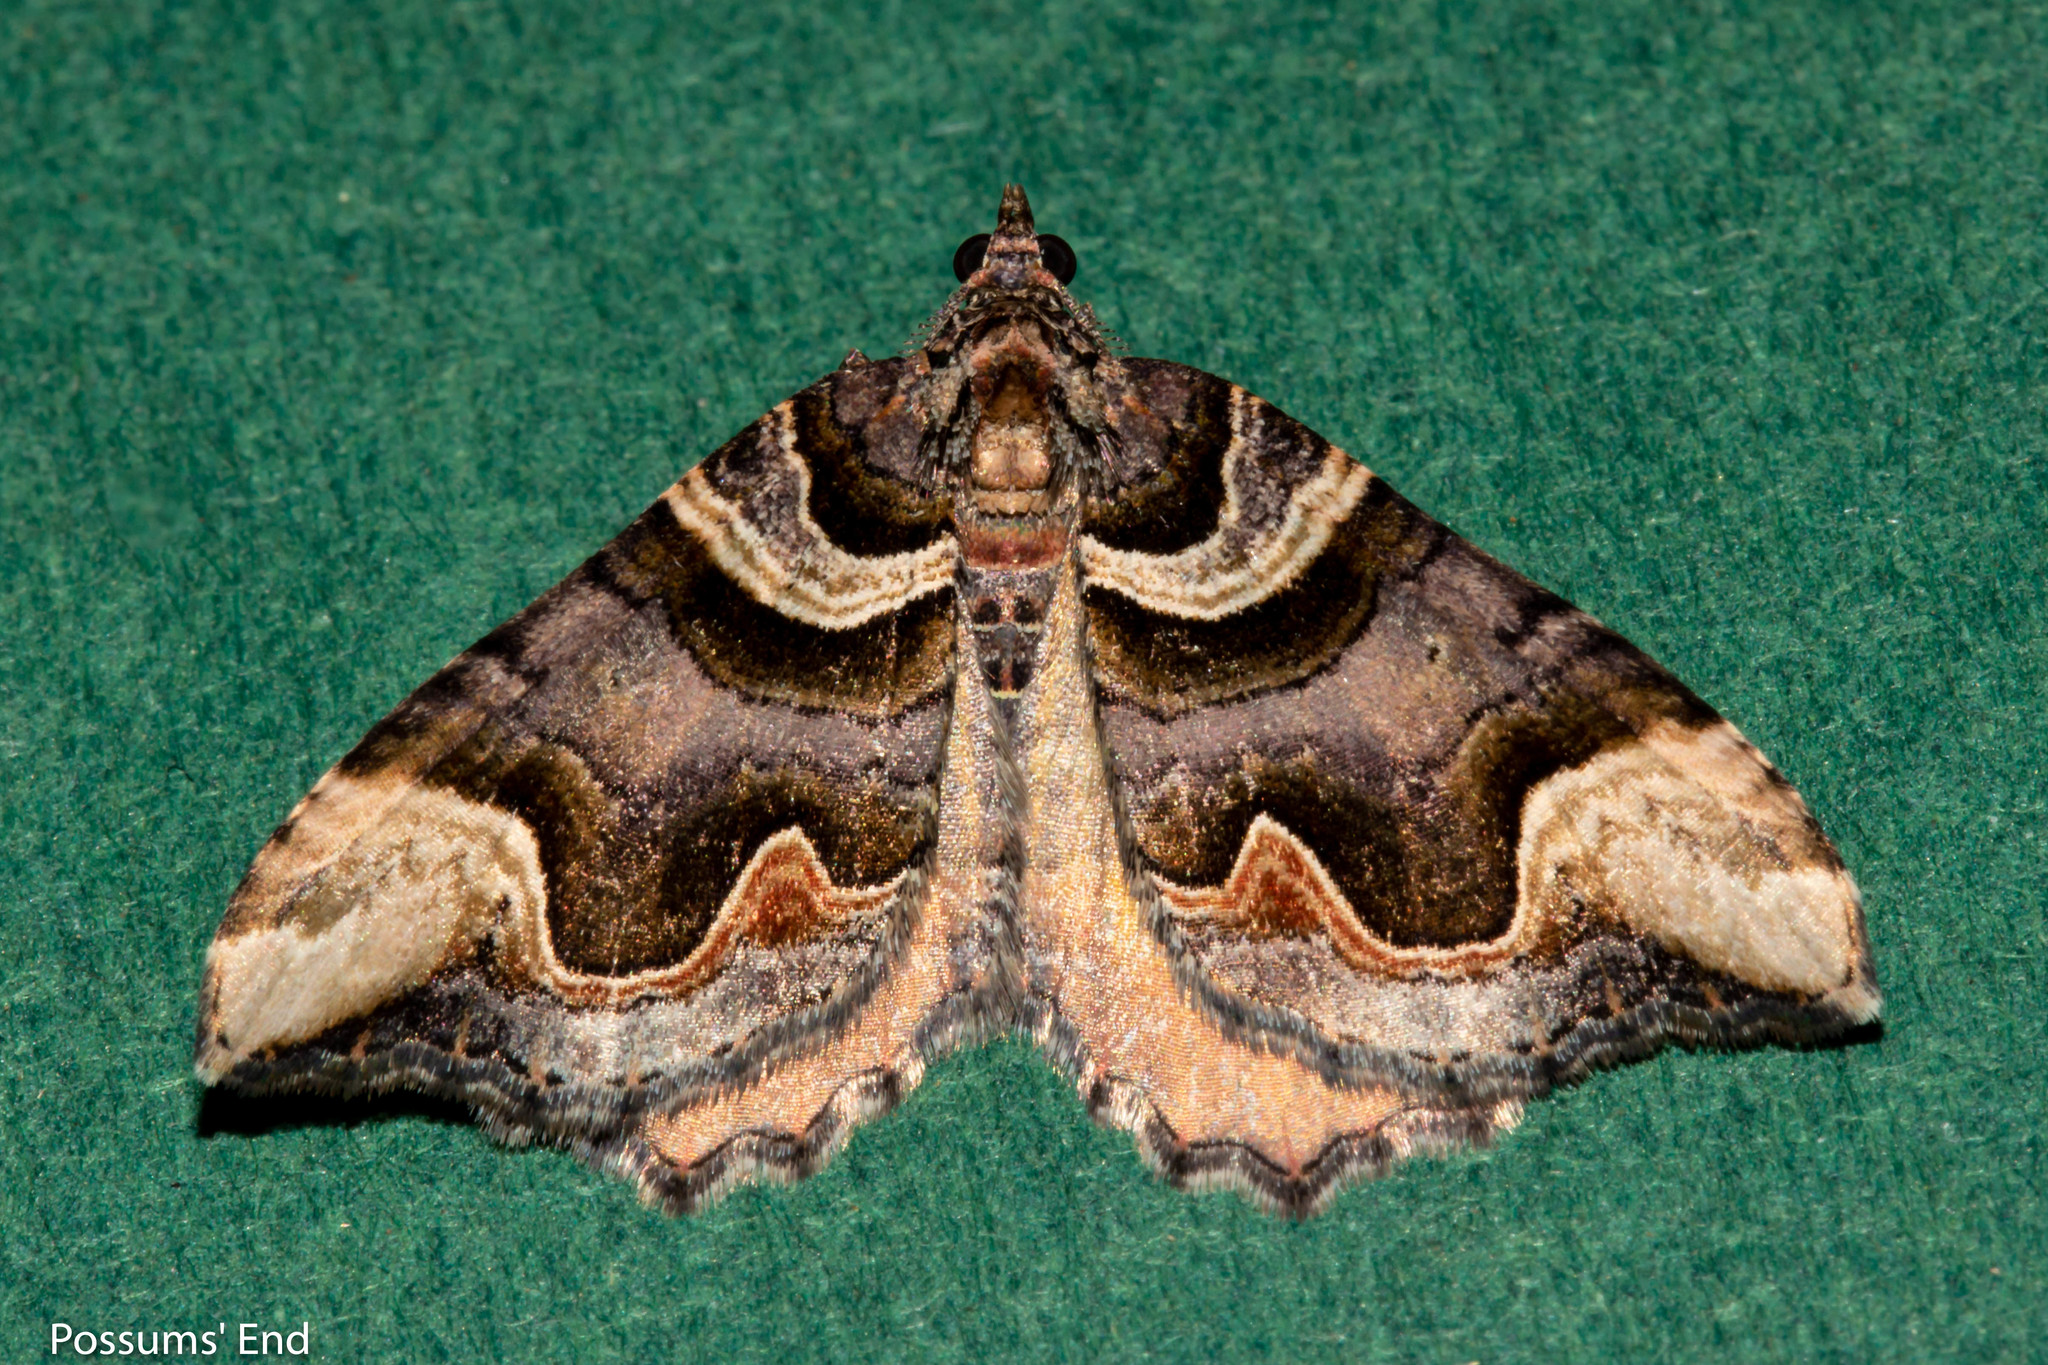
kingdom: Animalia
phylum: Arthropoda
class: Insecta
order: Lepidoptera
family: Geometridae
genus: Asaphodes
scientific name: Asaphodes chlamydota
